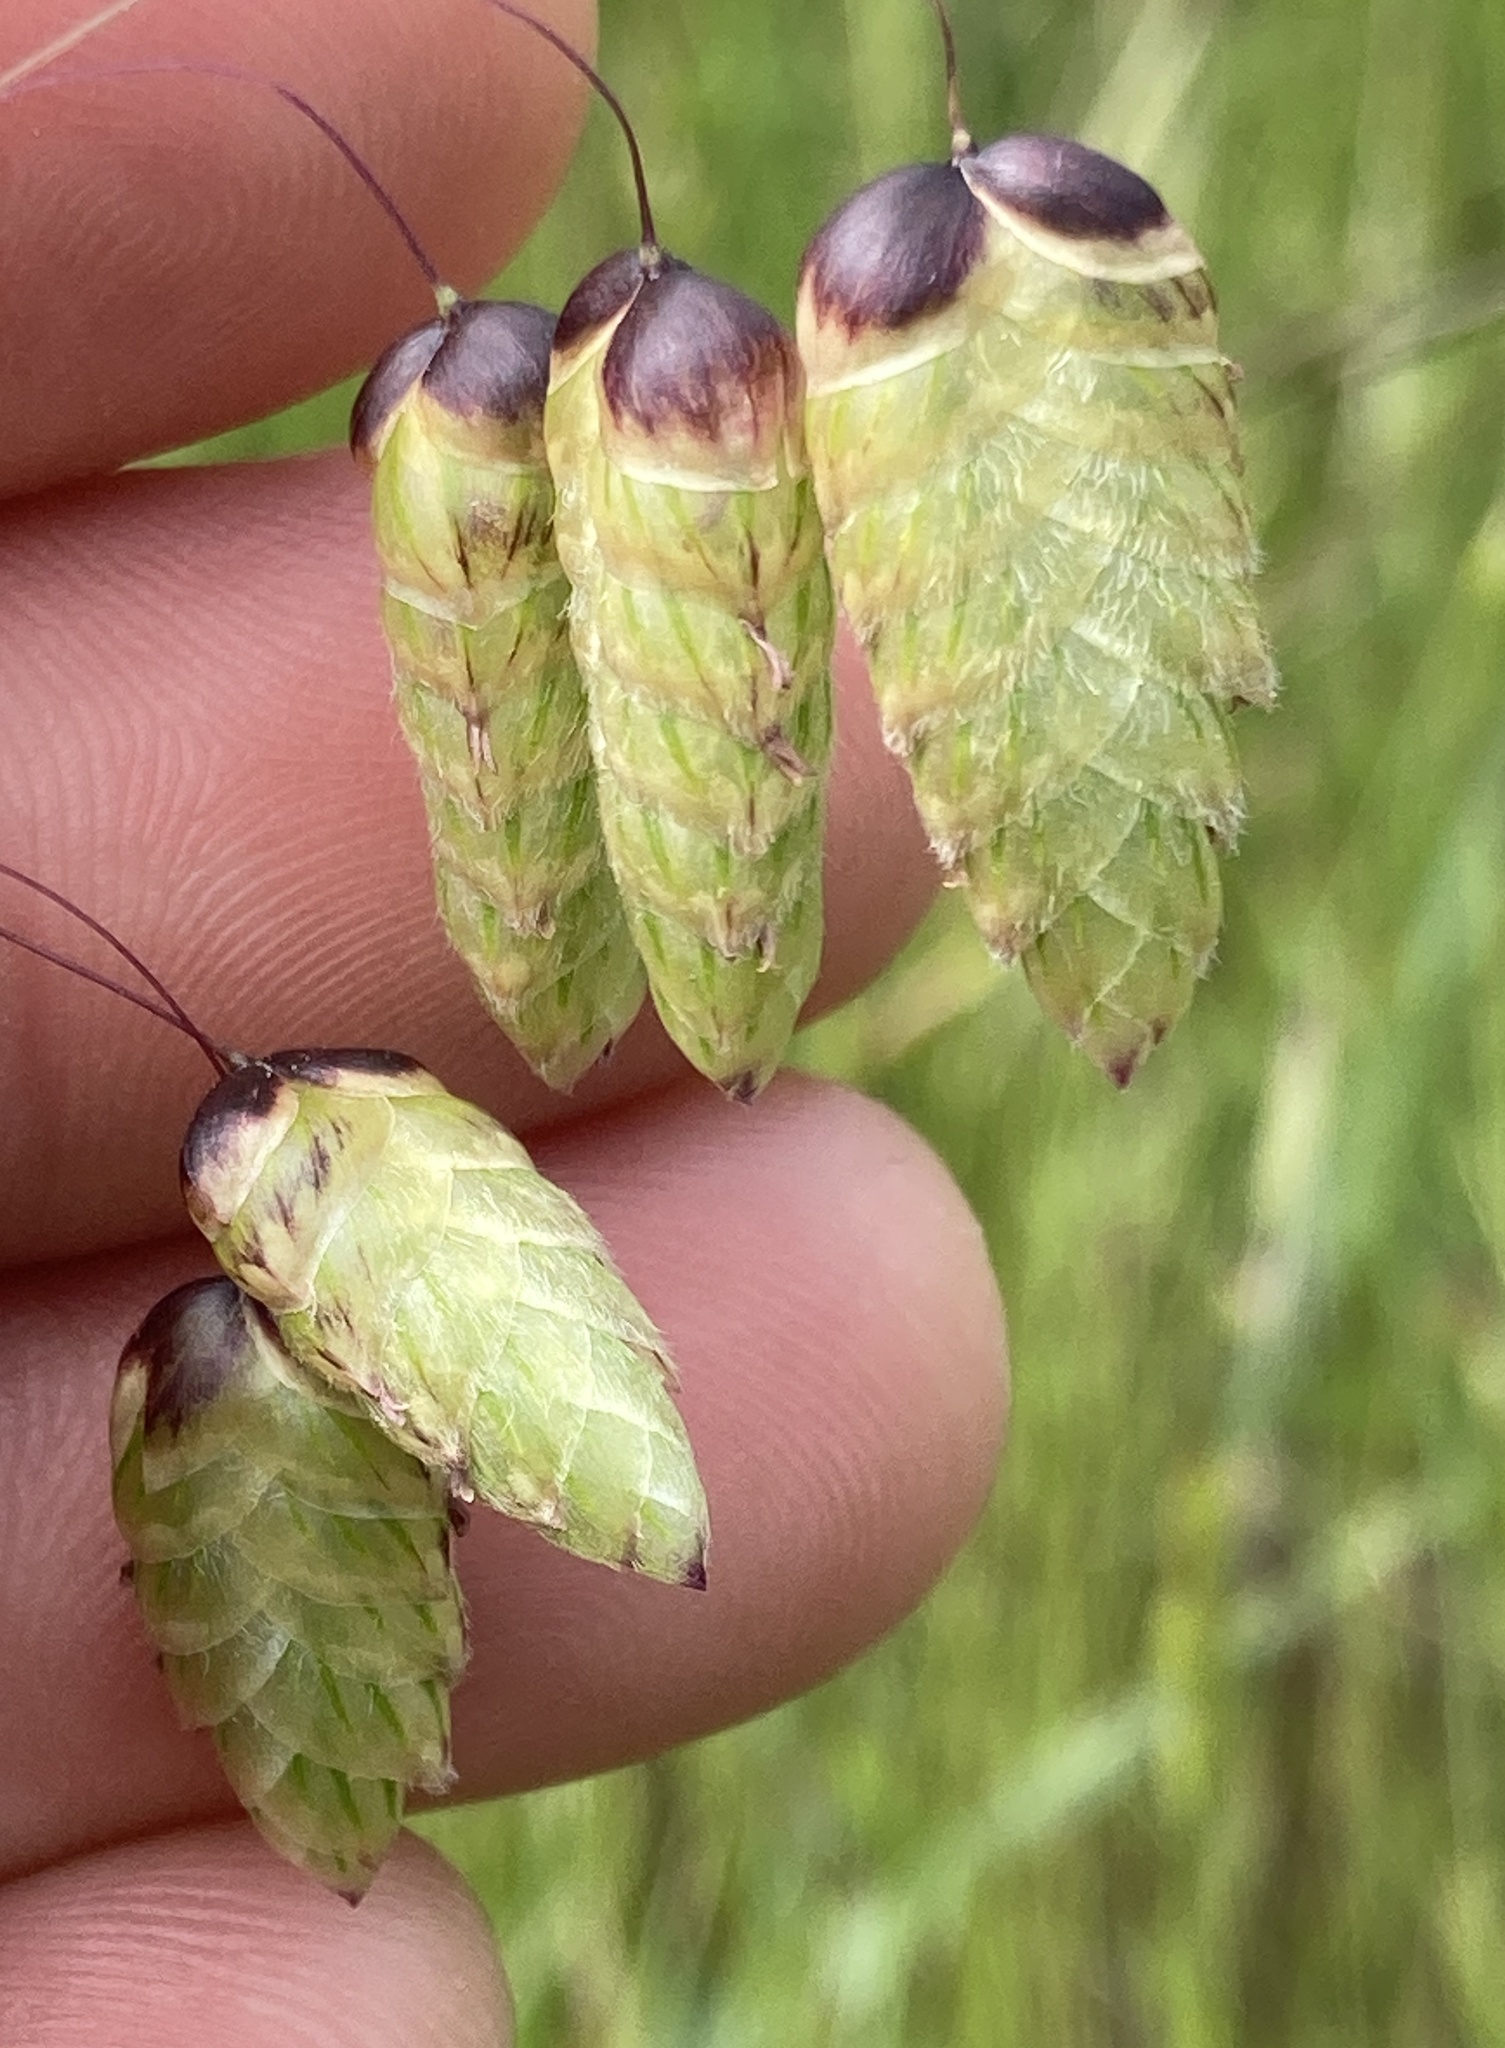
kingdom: Plantae
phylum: Tracheophyta
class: Liliopsida
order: Poales
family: Poaceae
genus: Briza
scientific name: Briza maxima
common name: Big quakinggrass
